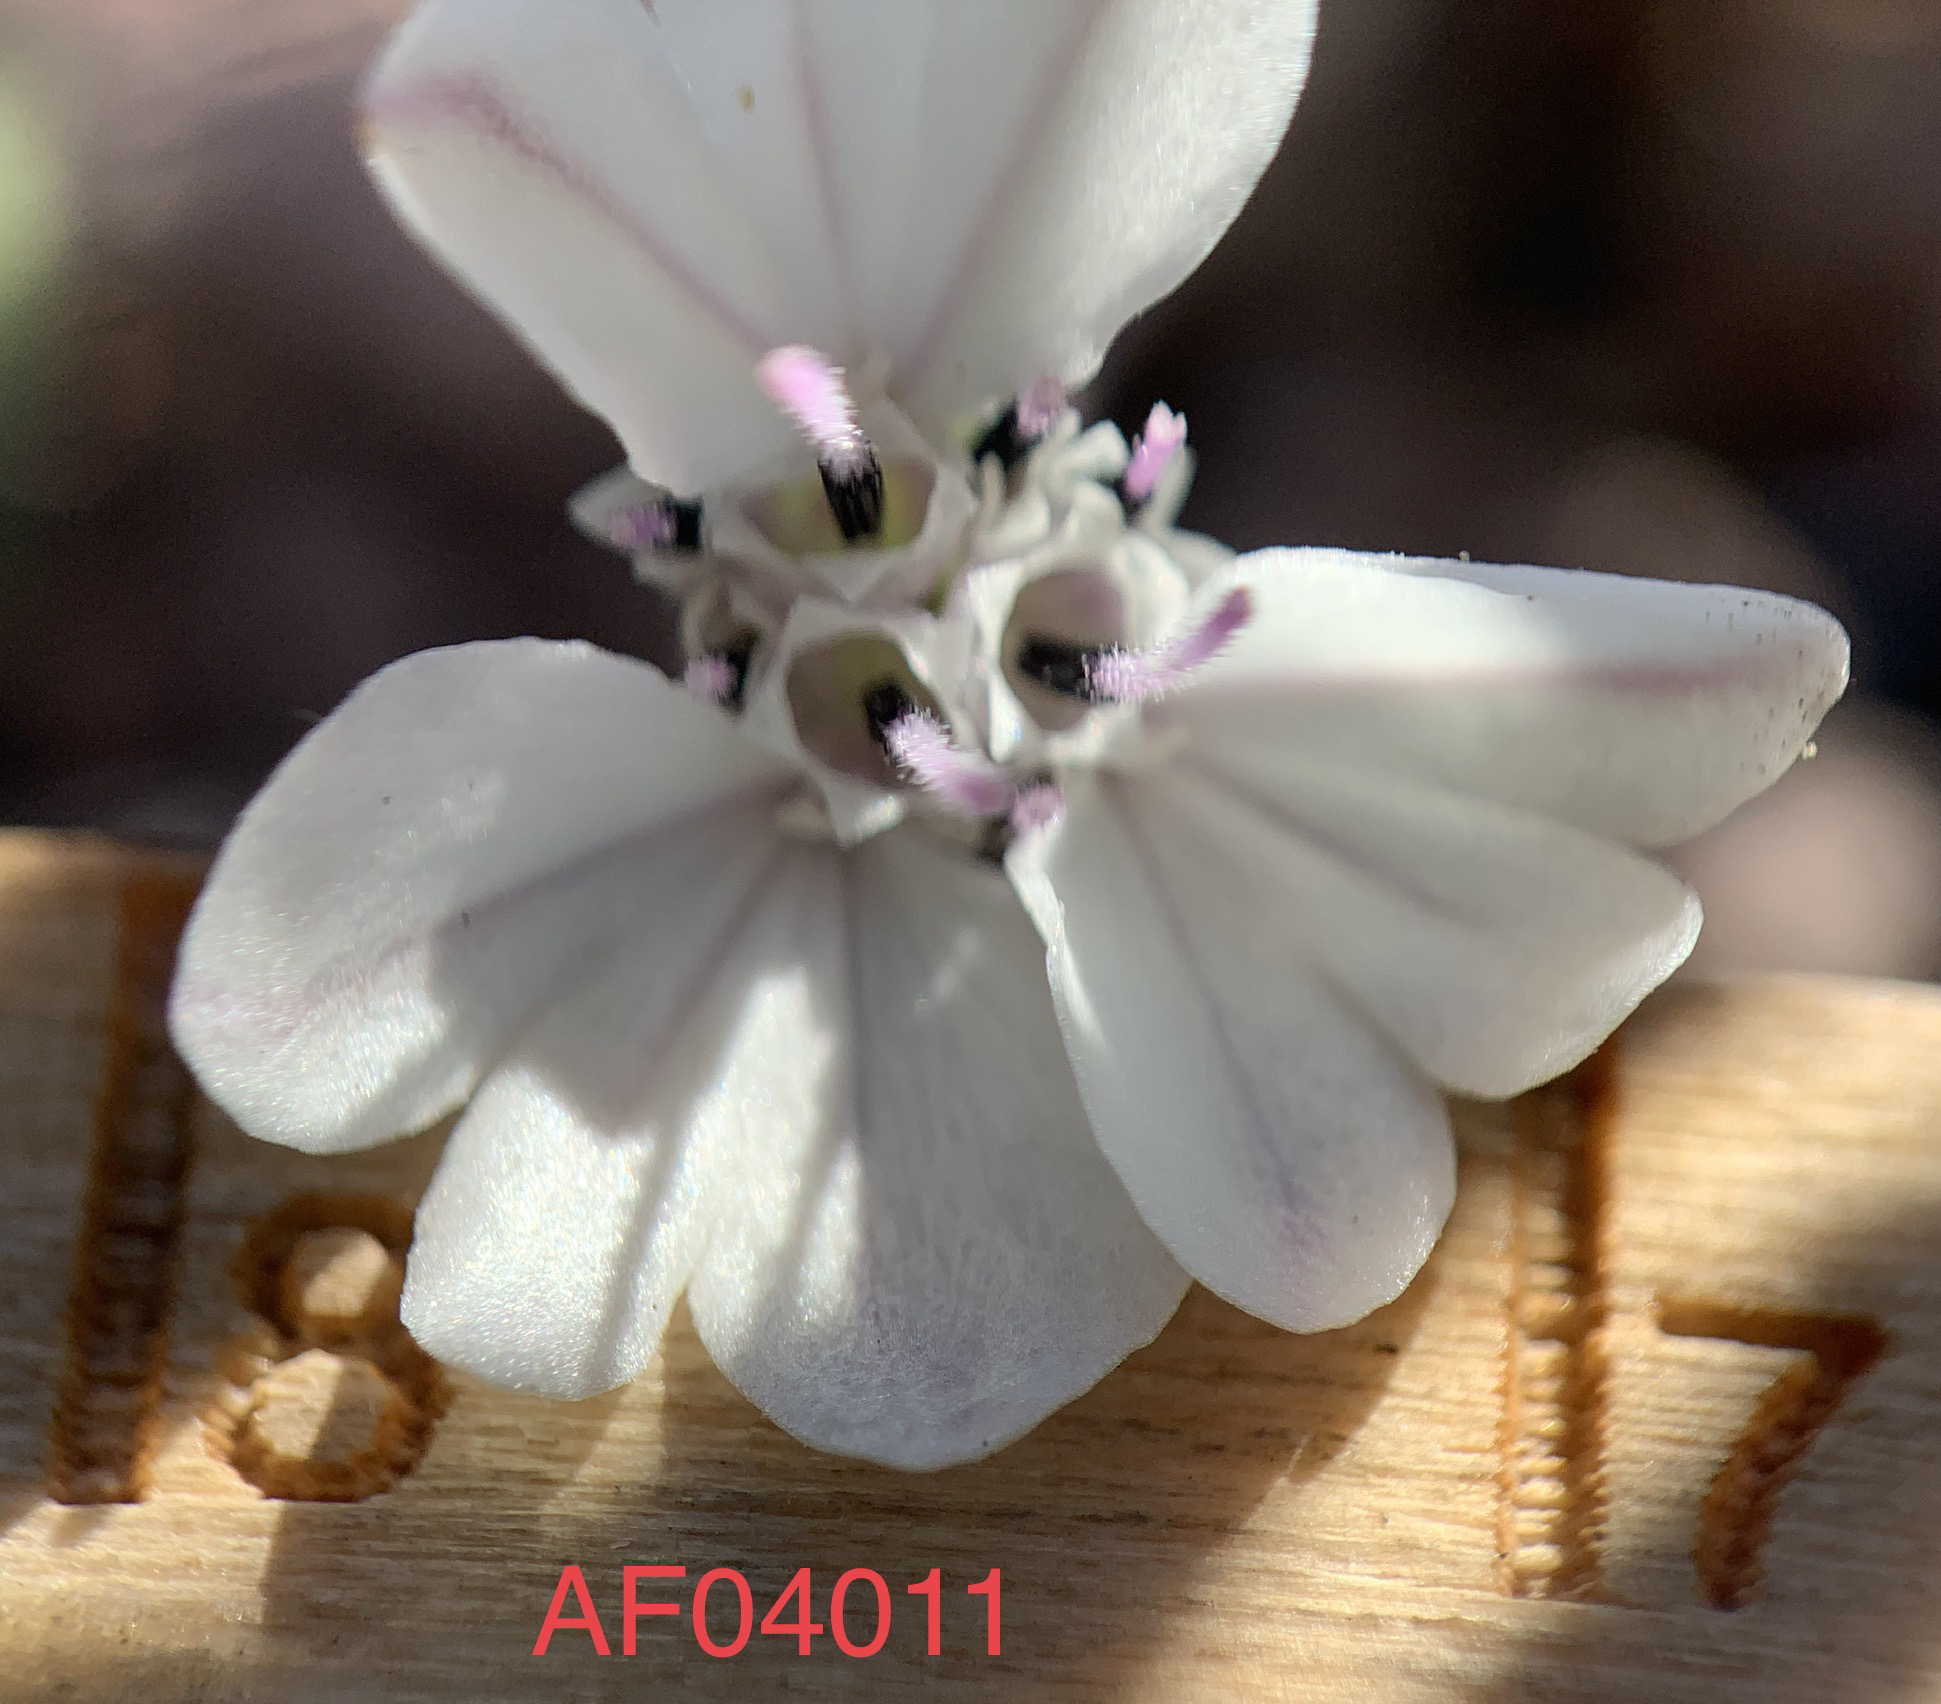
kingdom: Plantae
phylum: Tracheophyta
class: Magnoliopsida
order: Asterales
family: Asteraceae
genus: Blepharipappus
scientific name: Blepharipappus scaber
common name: Rough blepharipappus
